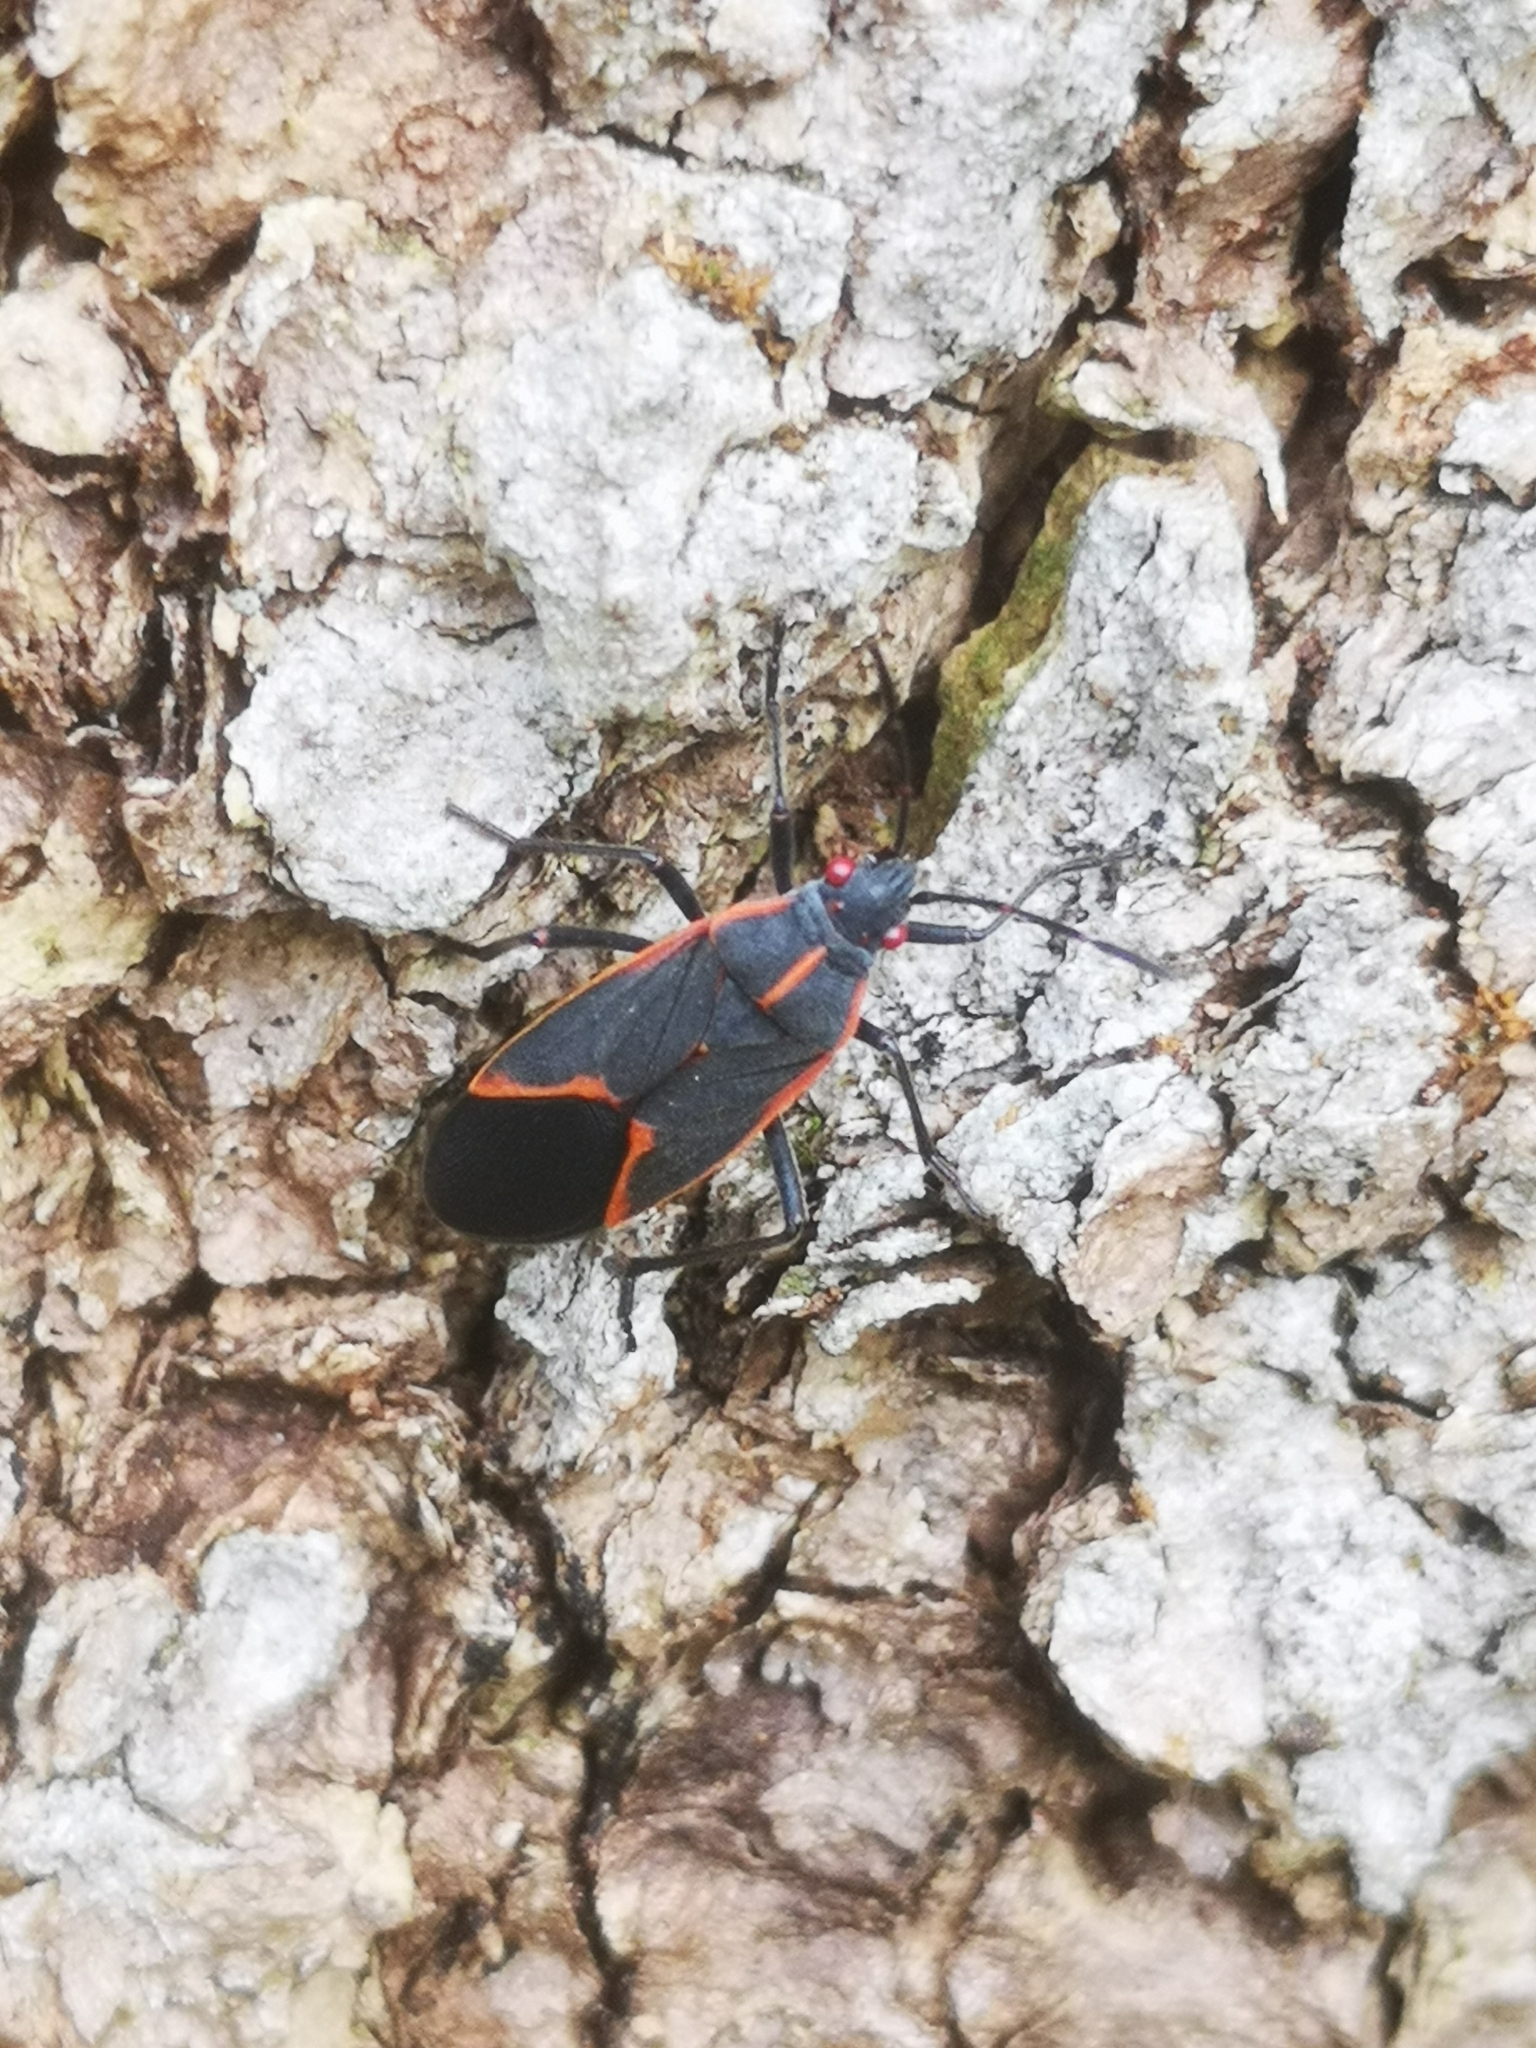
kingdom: Animalia
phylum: Arthropoda
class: Insecta
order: Hemiptera
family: Rhopalidae
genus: Boisea
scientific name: Boisea trivittata
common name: Boxelder bug
